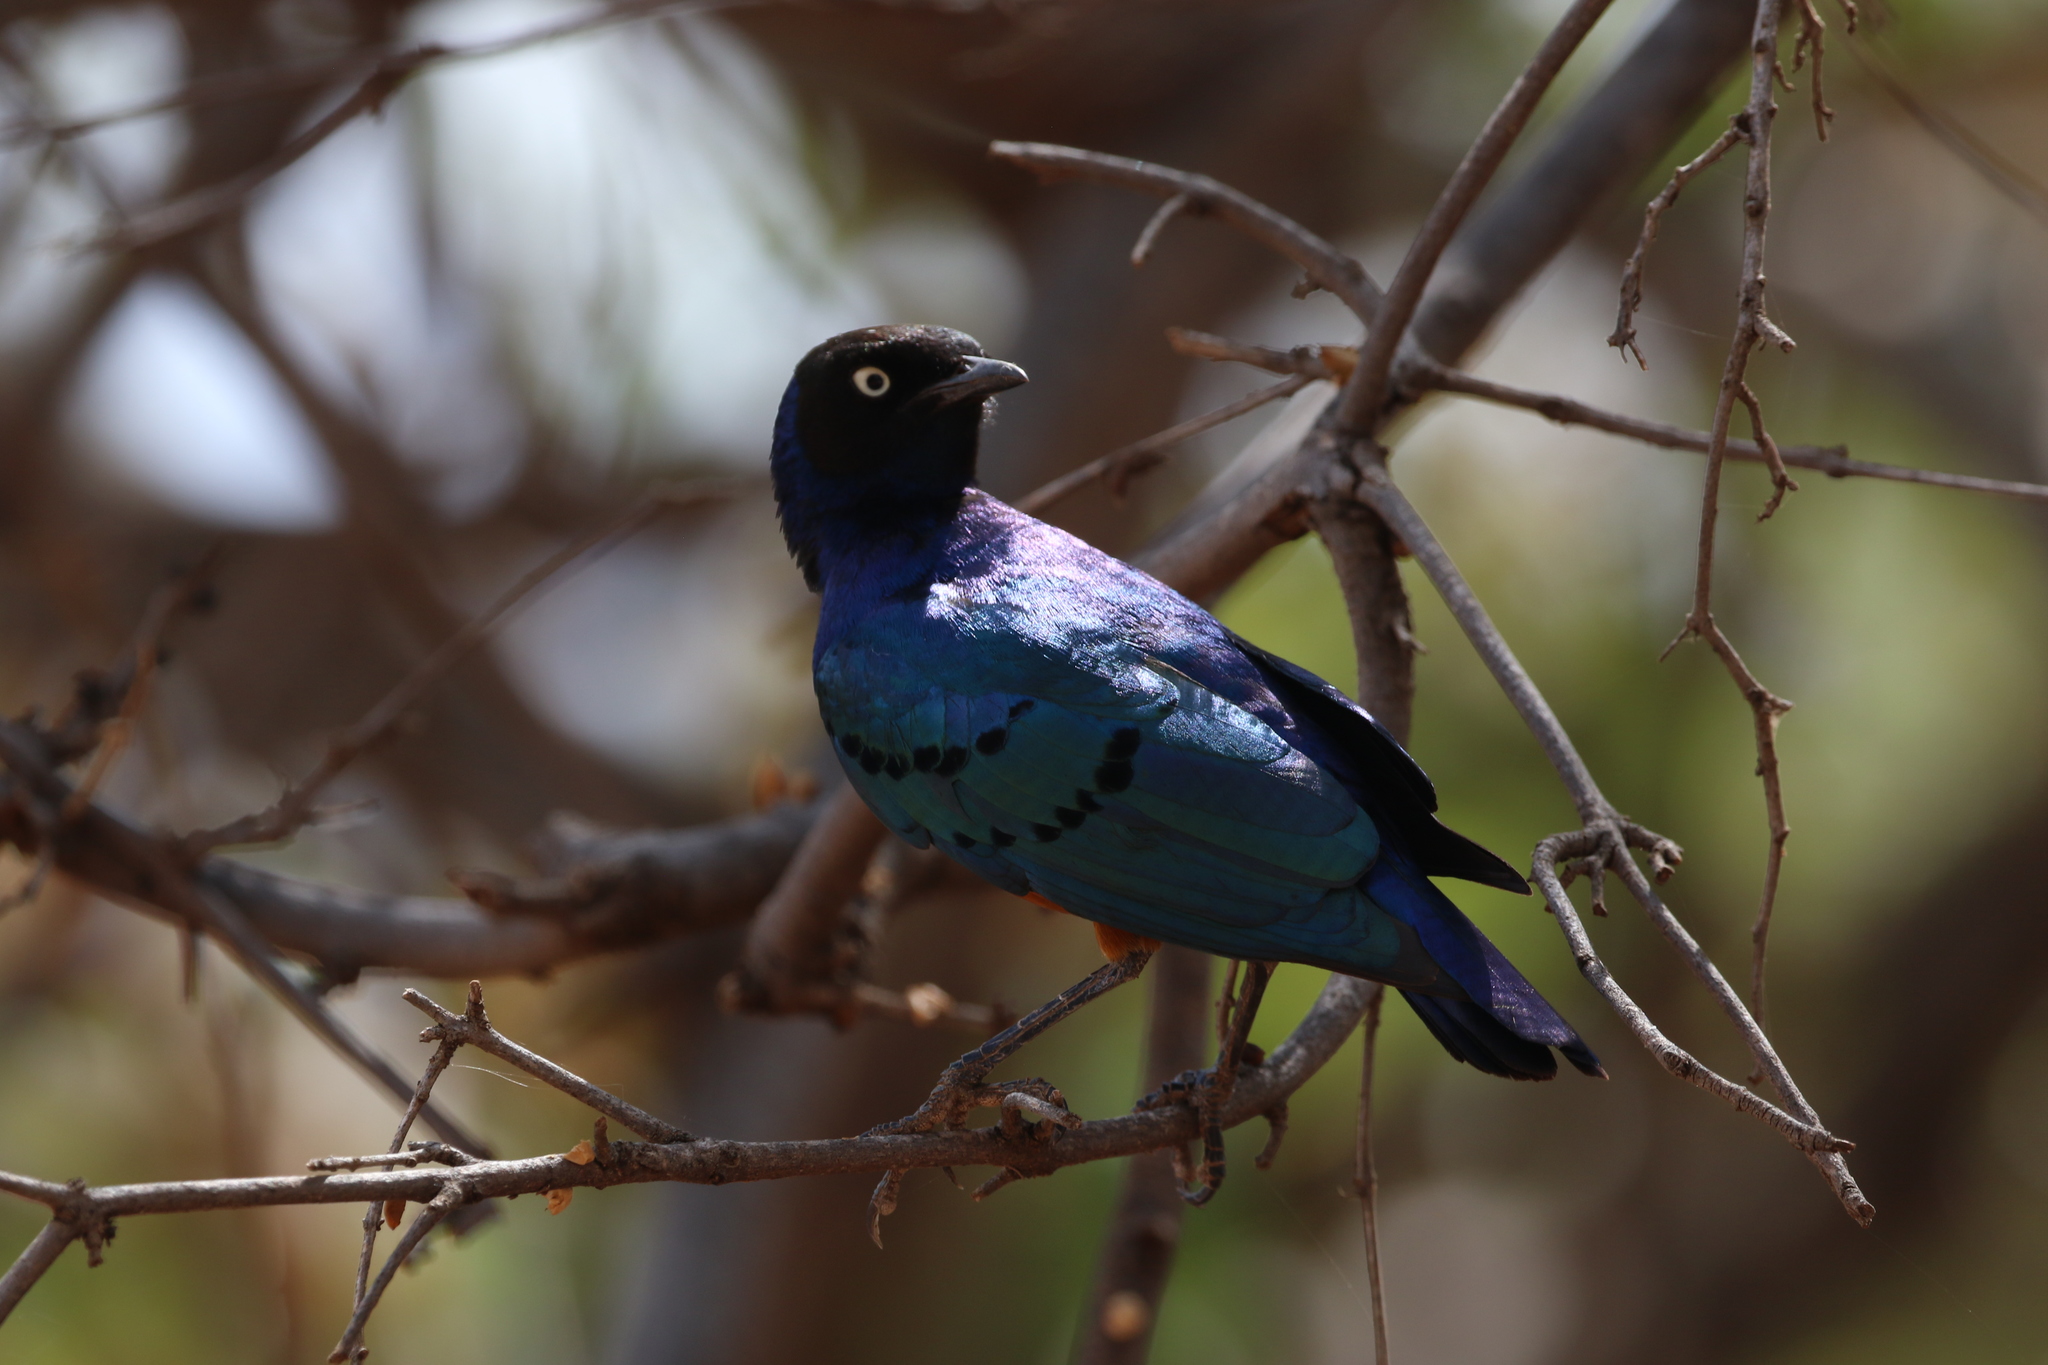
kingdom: Animalia
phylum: Chordata
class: Aves
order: Passeriformes
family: Sturnidae
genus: Lamprotornis
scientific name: Lamprotornis superbus
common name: Superb starling
